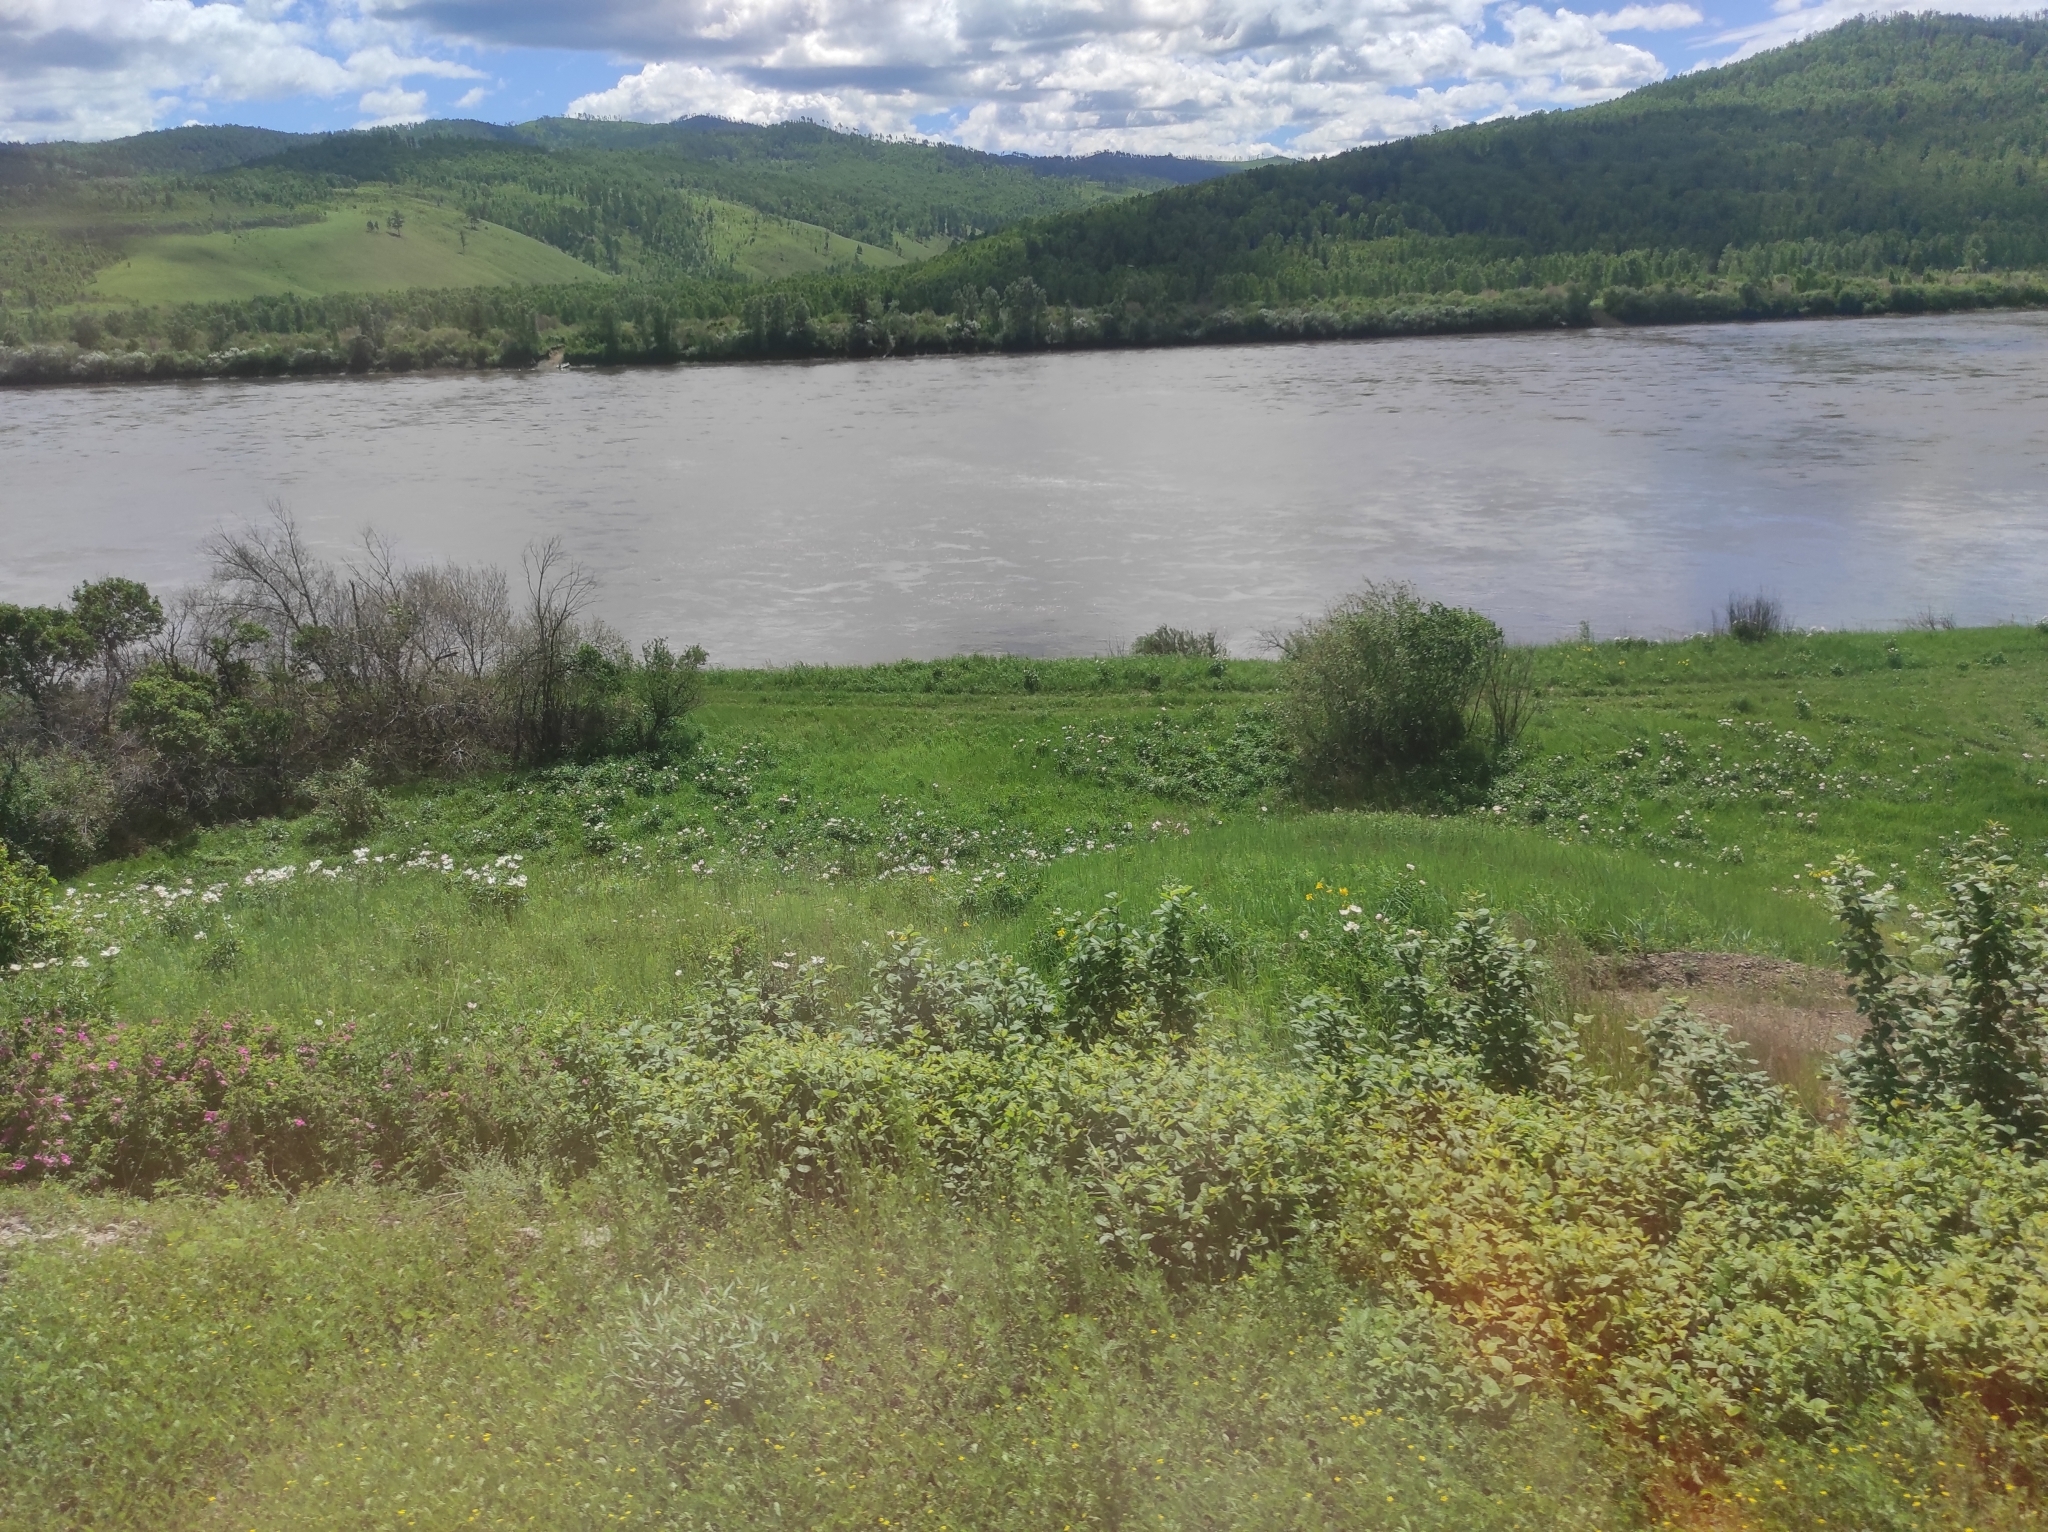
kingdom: Plantae
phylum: Tracheophyta
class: Magnoliopsida
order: Saxifragales
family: Paeoniaceae
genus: Paeonia
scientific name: Paeonia lactiflora
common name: Chinese peony
